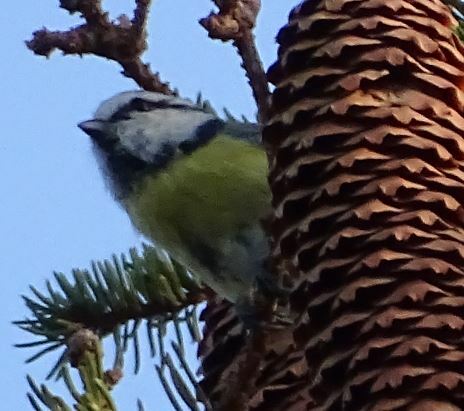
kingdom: Animalia
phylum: Chordata
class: Aves
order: Passeriformes
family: Paridae
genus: Cyanistes
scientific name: Cyanistes caeruleus
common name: Eurasian blue tit
